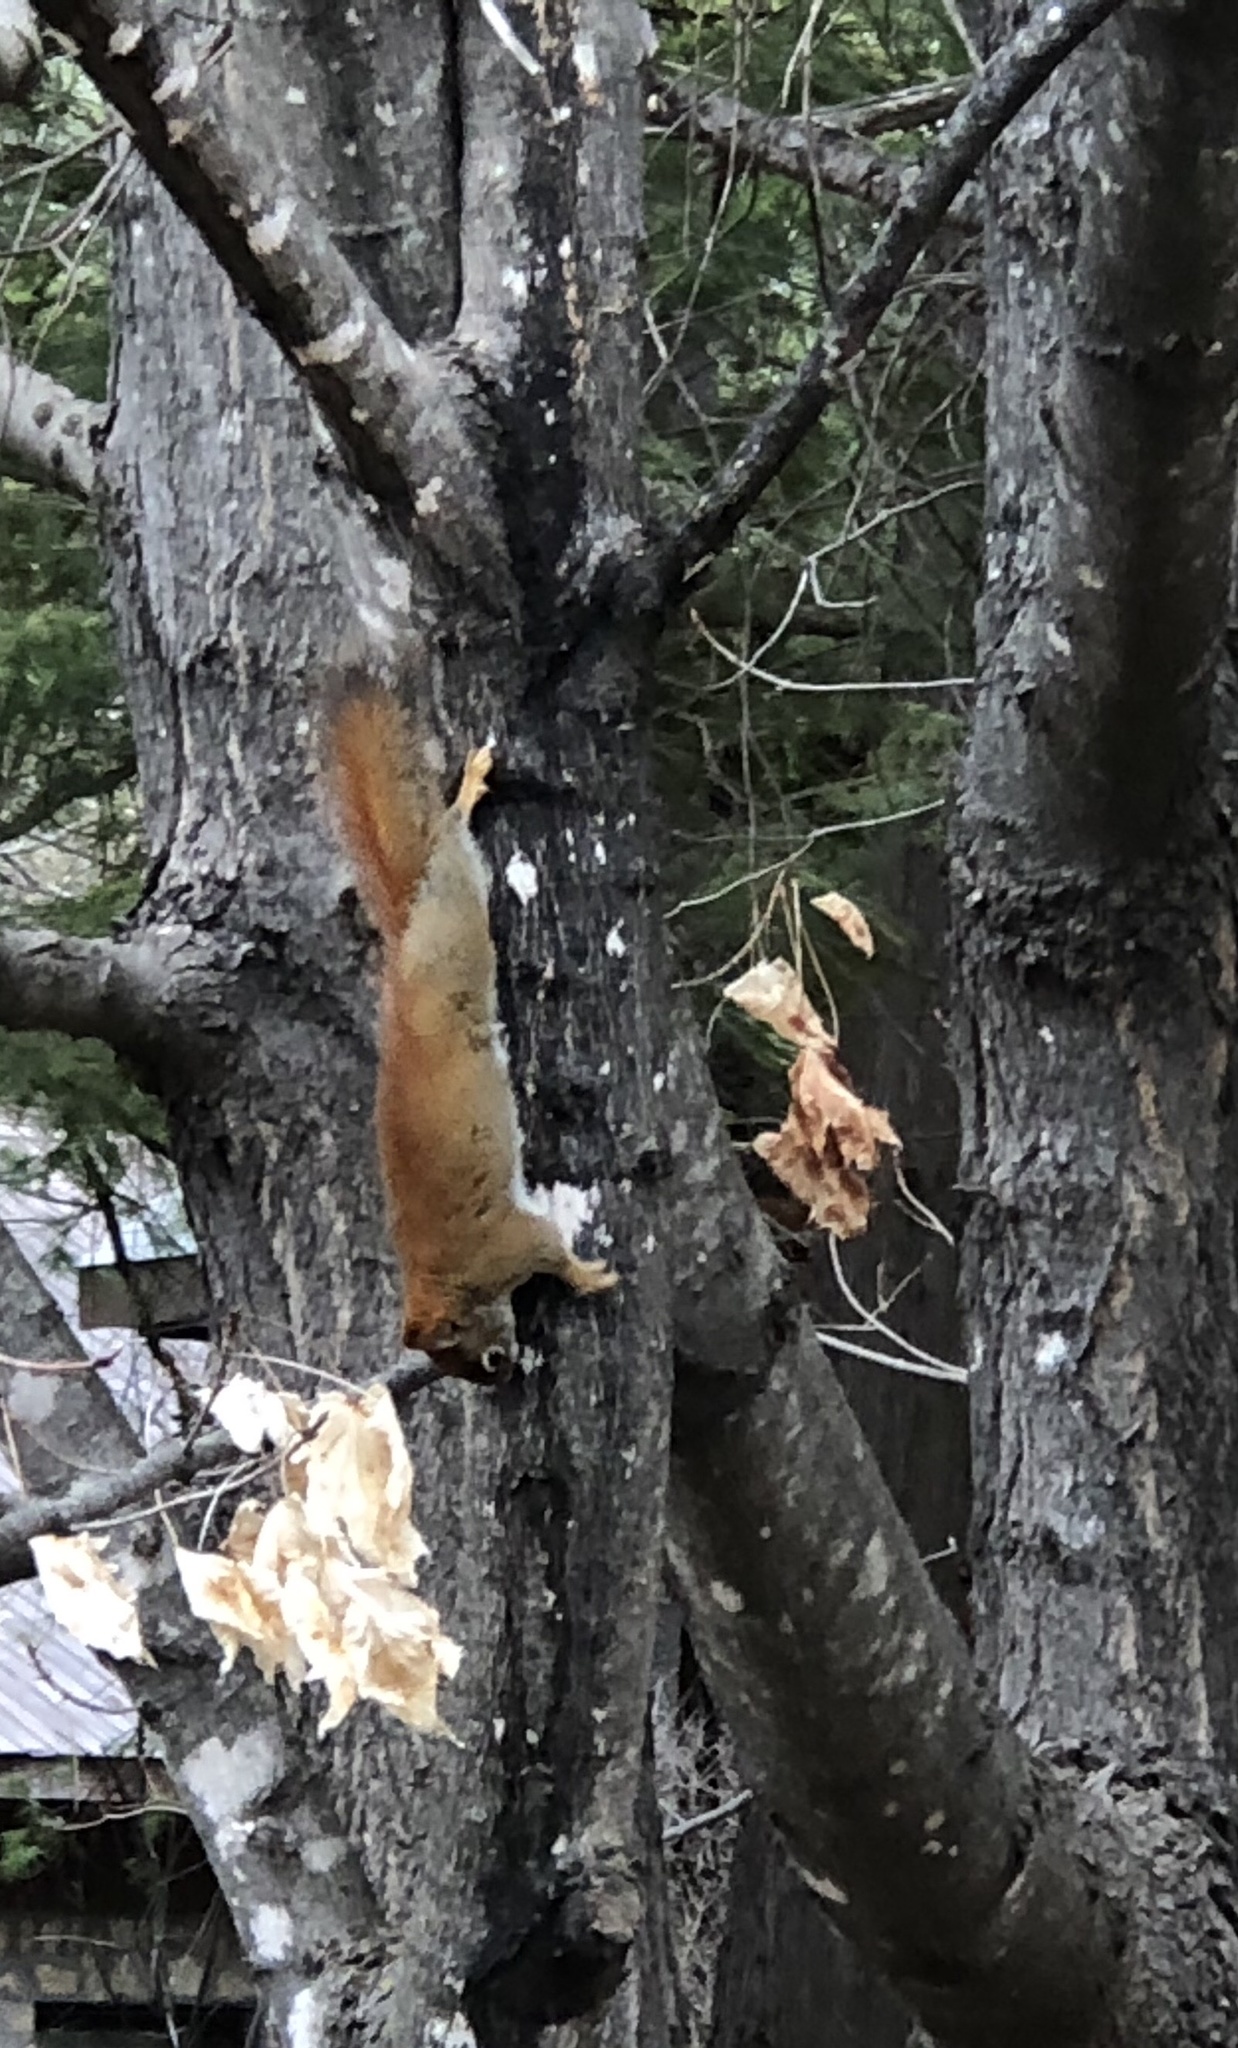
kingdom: Animalia
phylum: Chordata
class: Mammalia
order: Rodentia
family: Sciuridae
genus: Tamiasciurus
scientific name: Tamiasciurus hudsonicus
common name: Red squirrel
